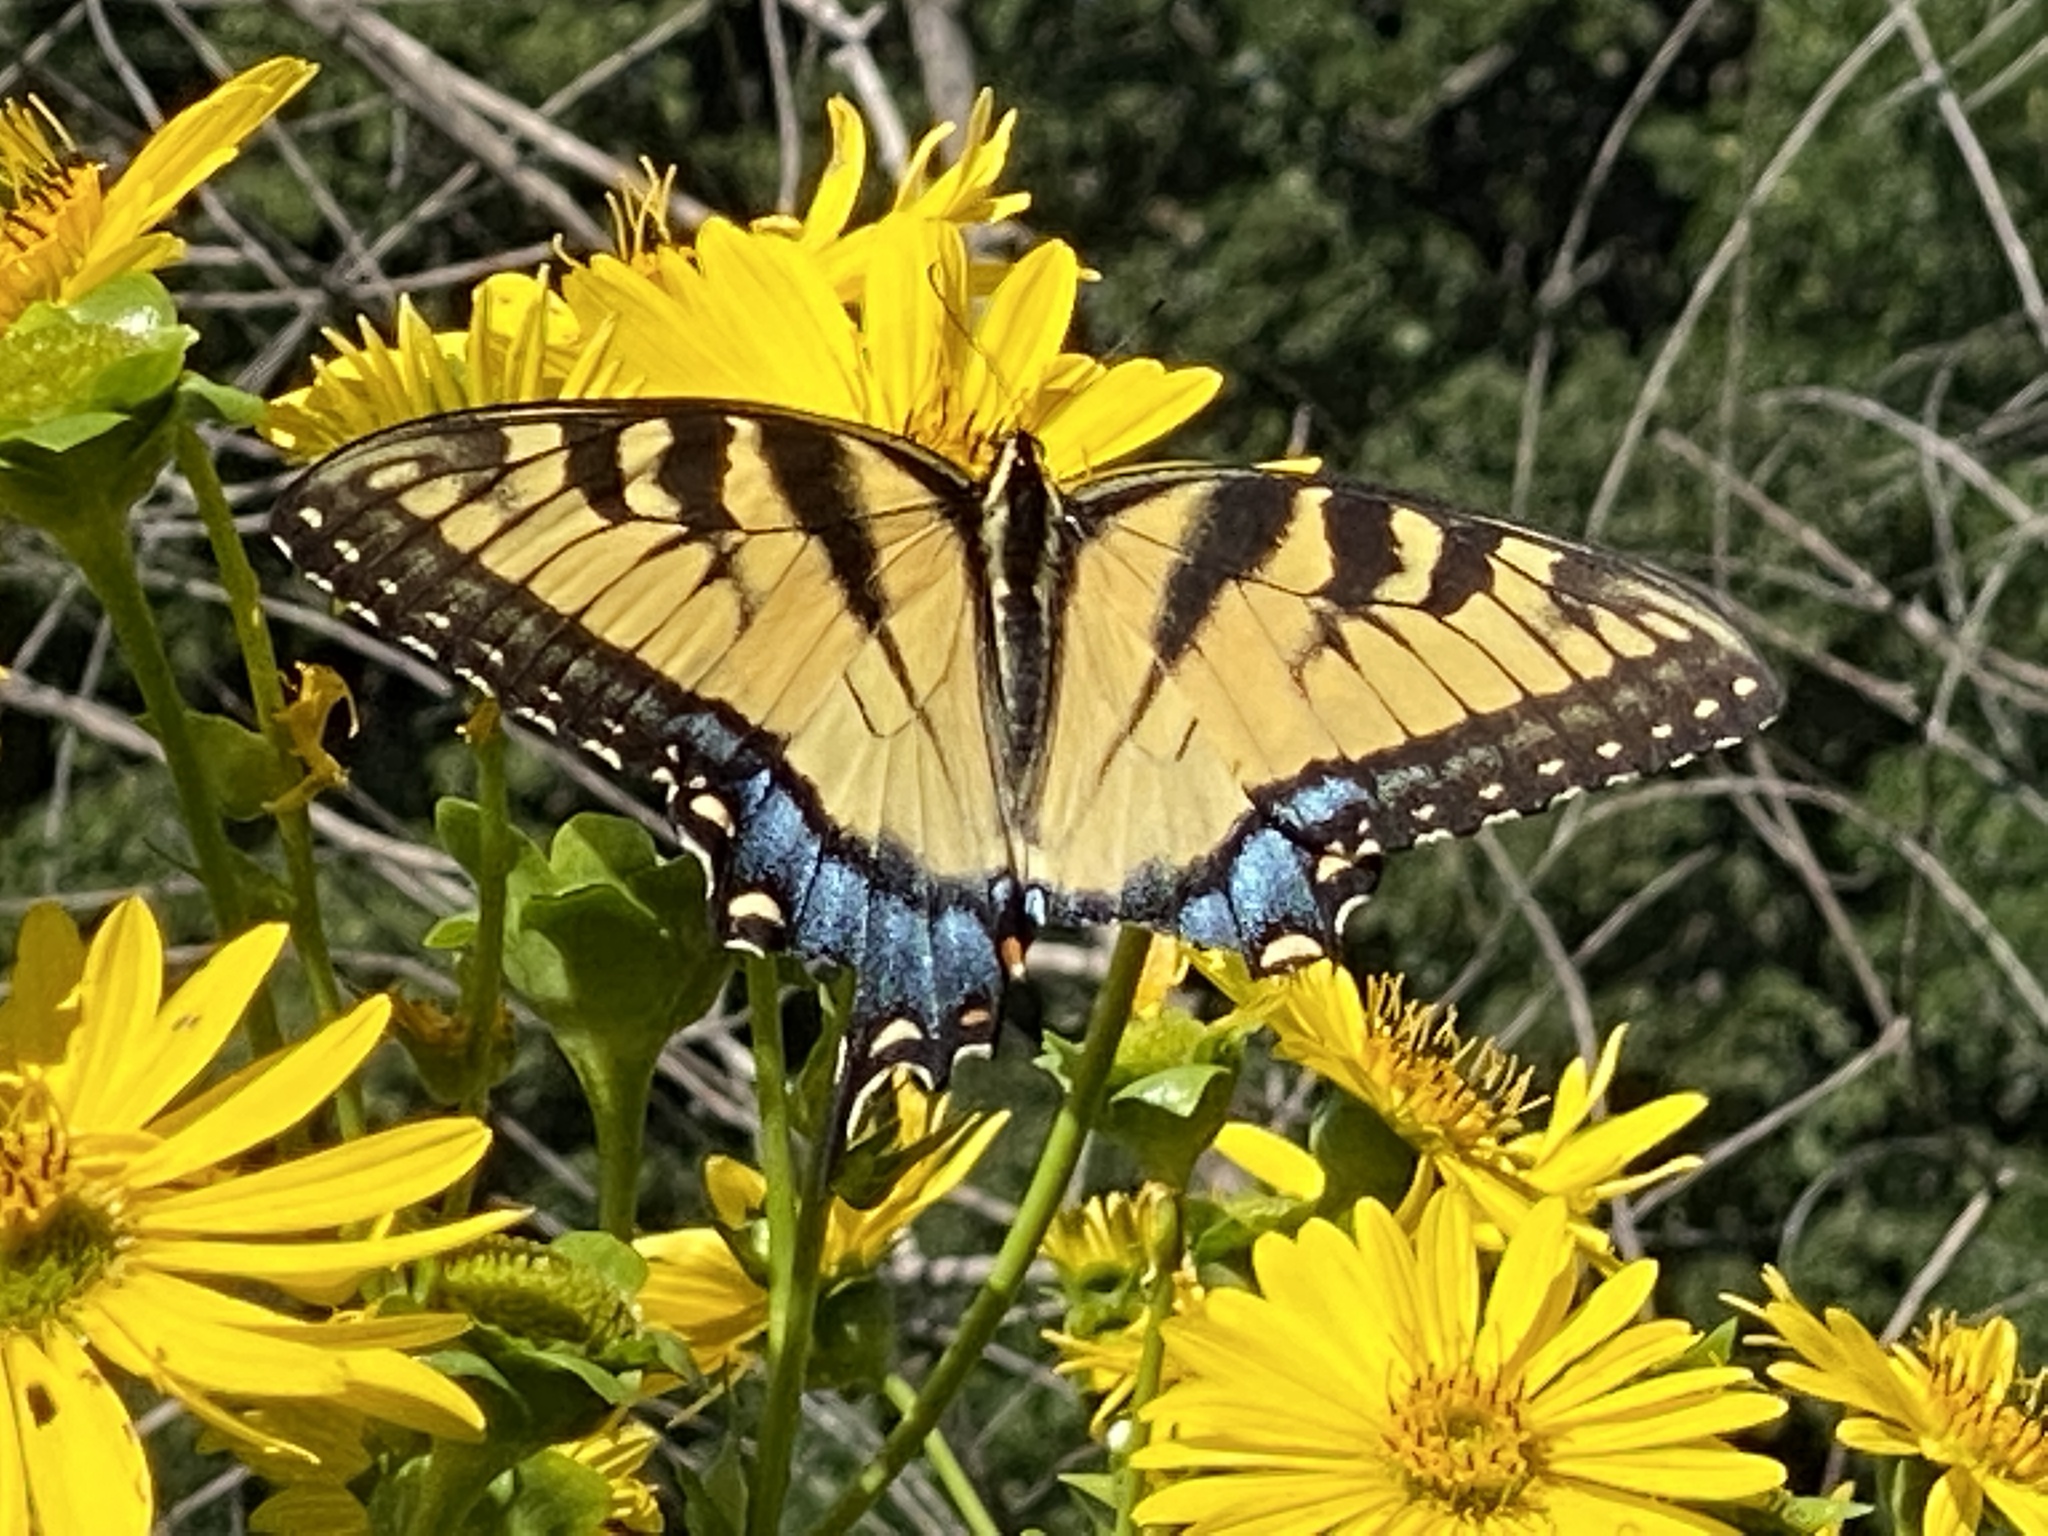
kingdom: Animalia
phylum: Arthropoda
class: Insecta
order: Lepidoptera
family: Papilionidae
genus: Papilio
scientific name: Papilio glaucus
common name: Tiger swallowtail
